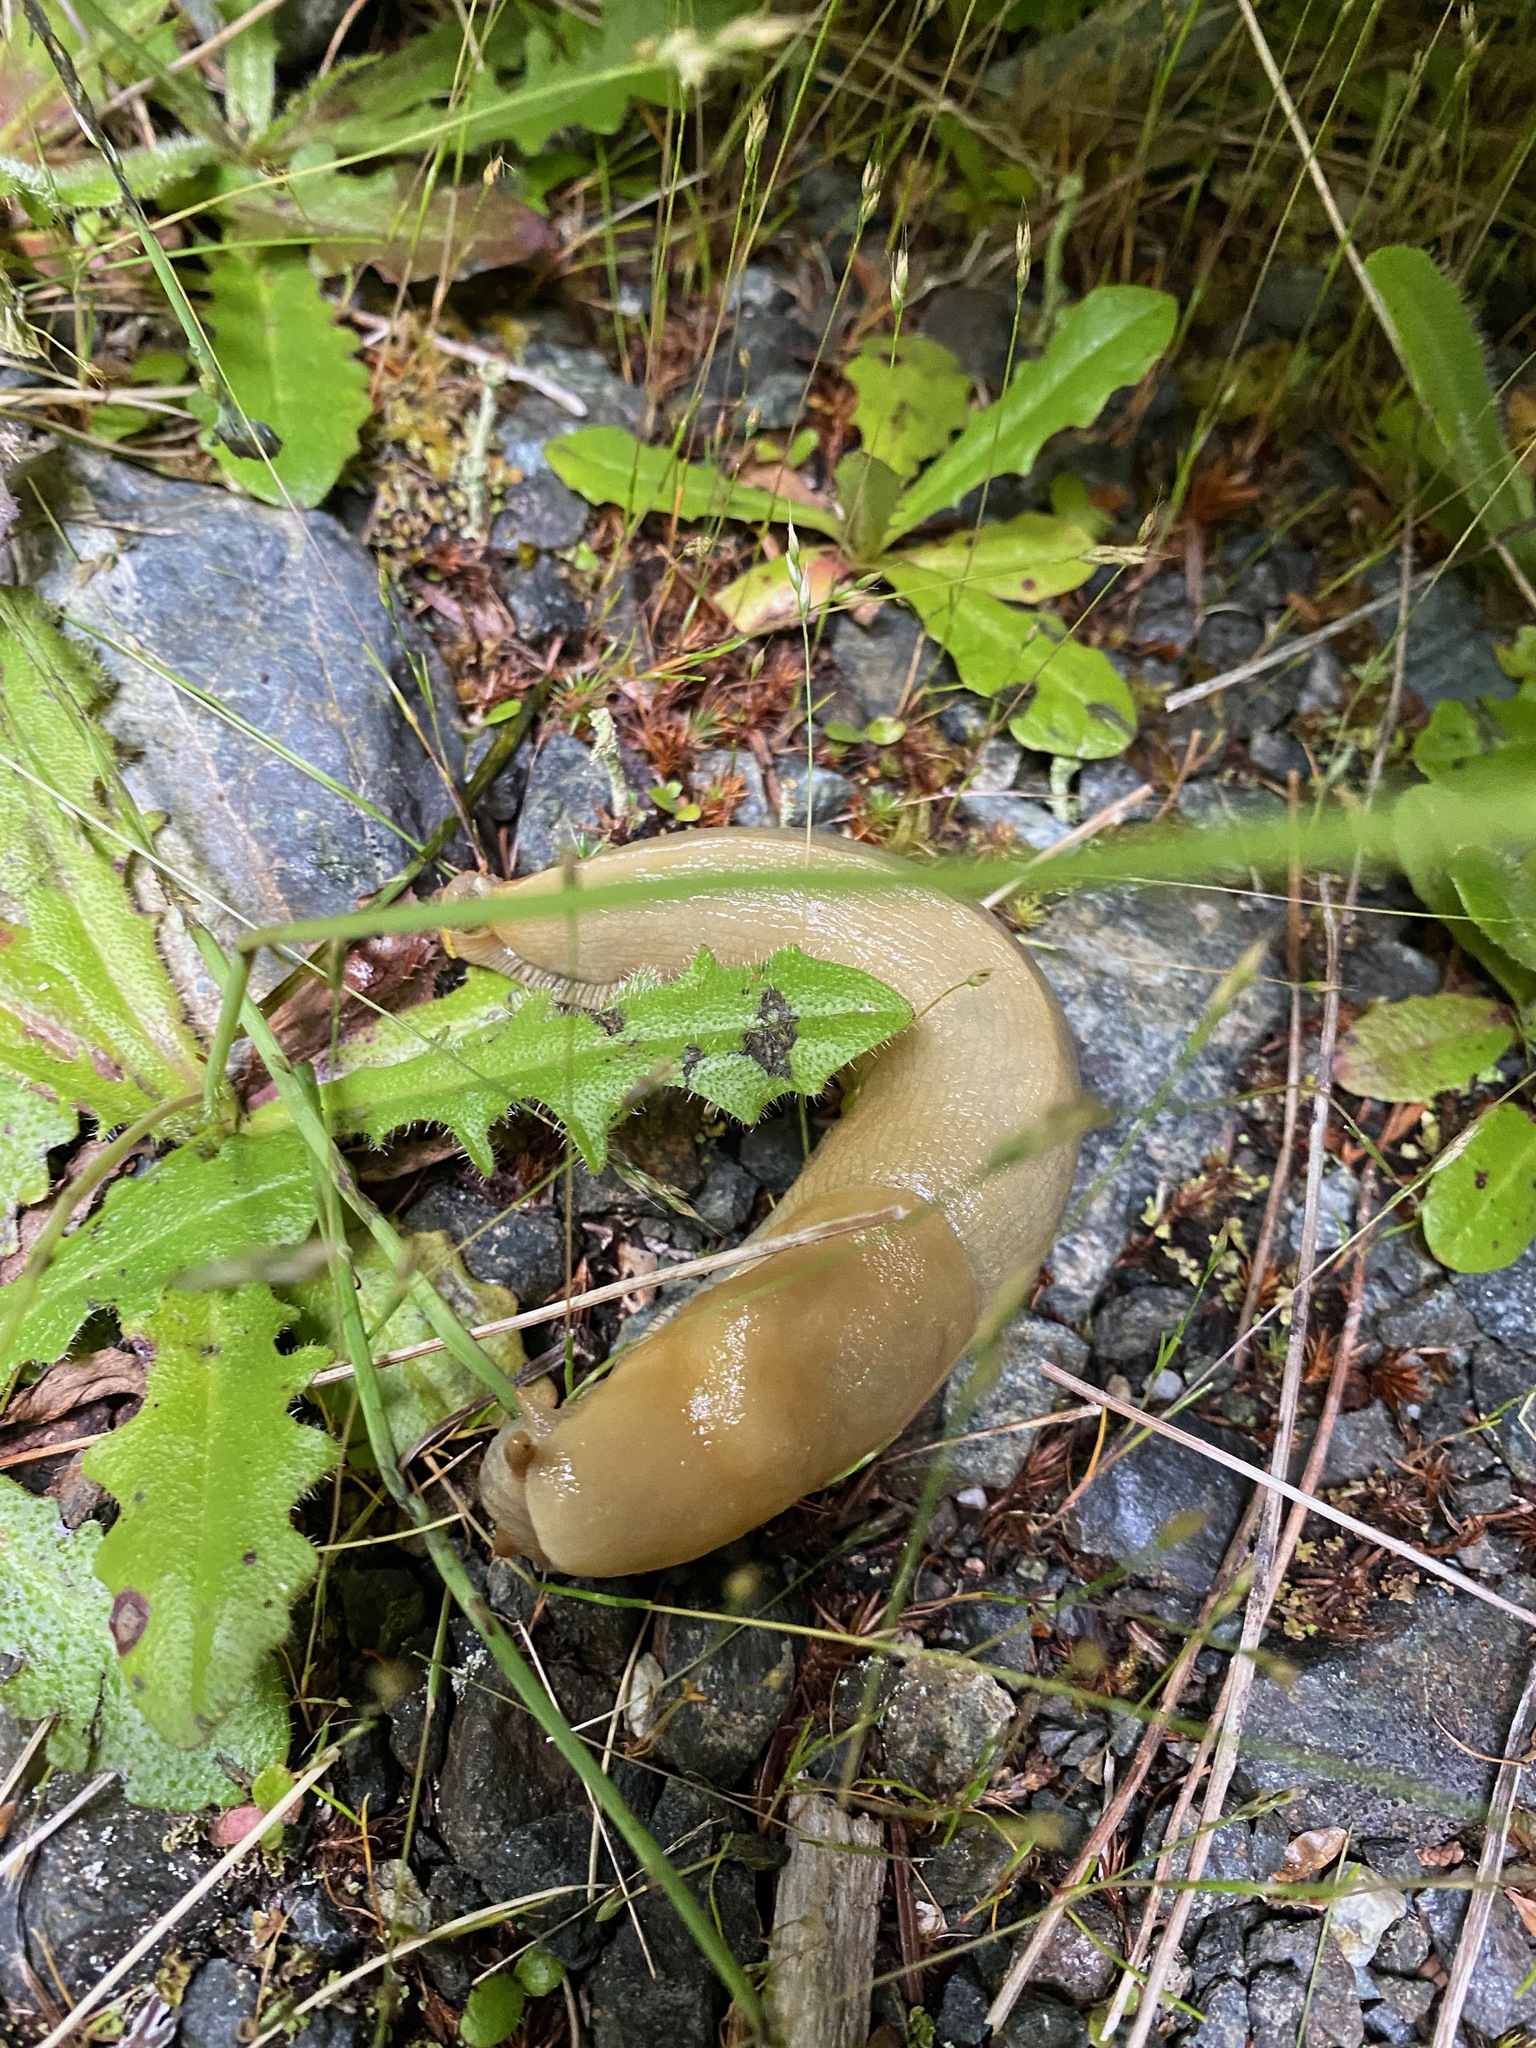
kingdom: Animalia
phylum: Mollusca
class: Gastropoda
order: Stylommatophora
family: Ariolimacidae
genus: Ariolimax
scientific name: Ariolimax columbianus
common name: Pacific banana slug
